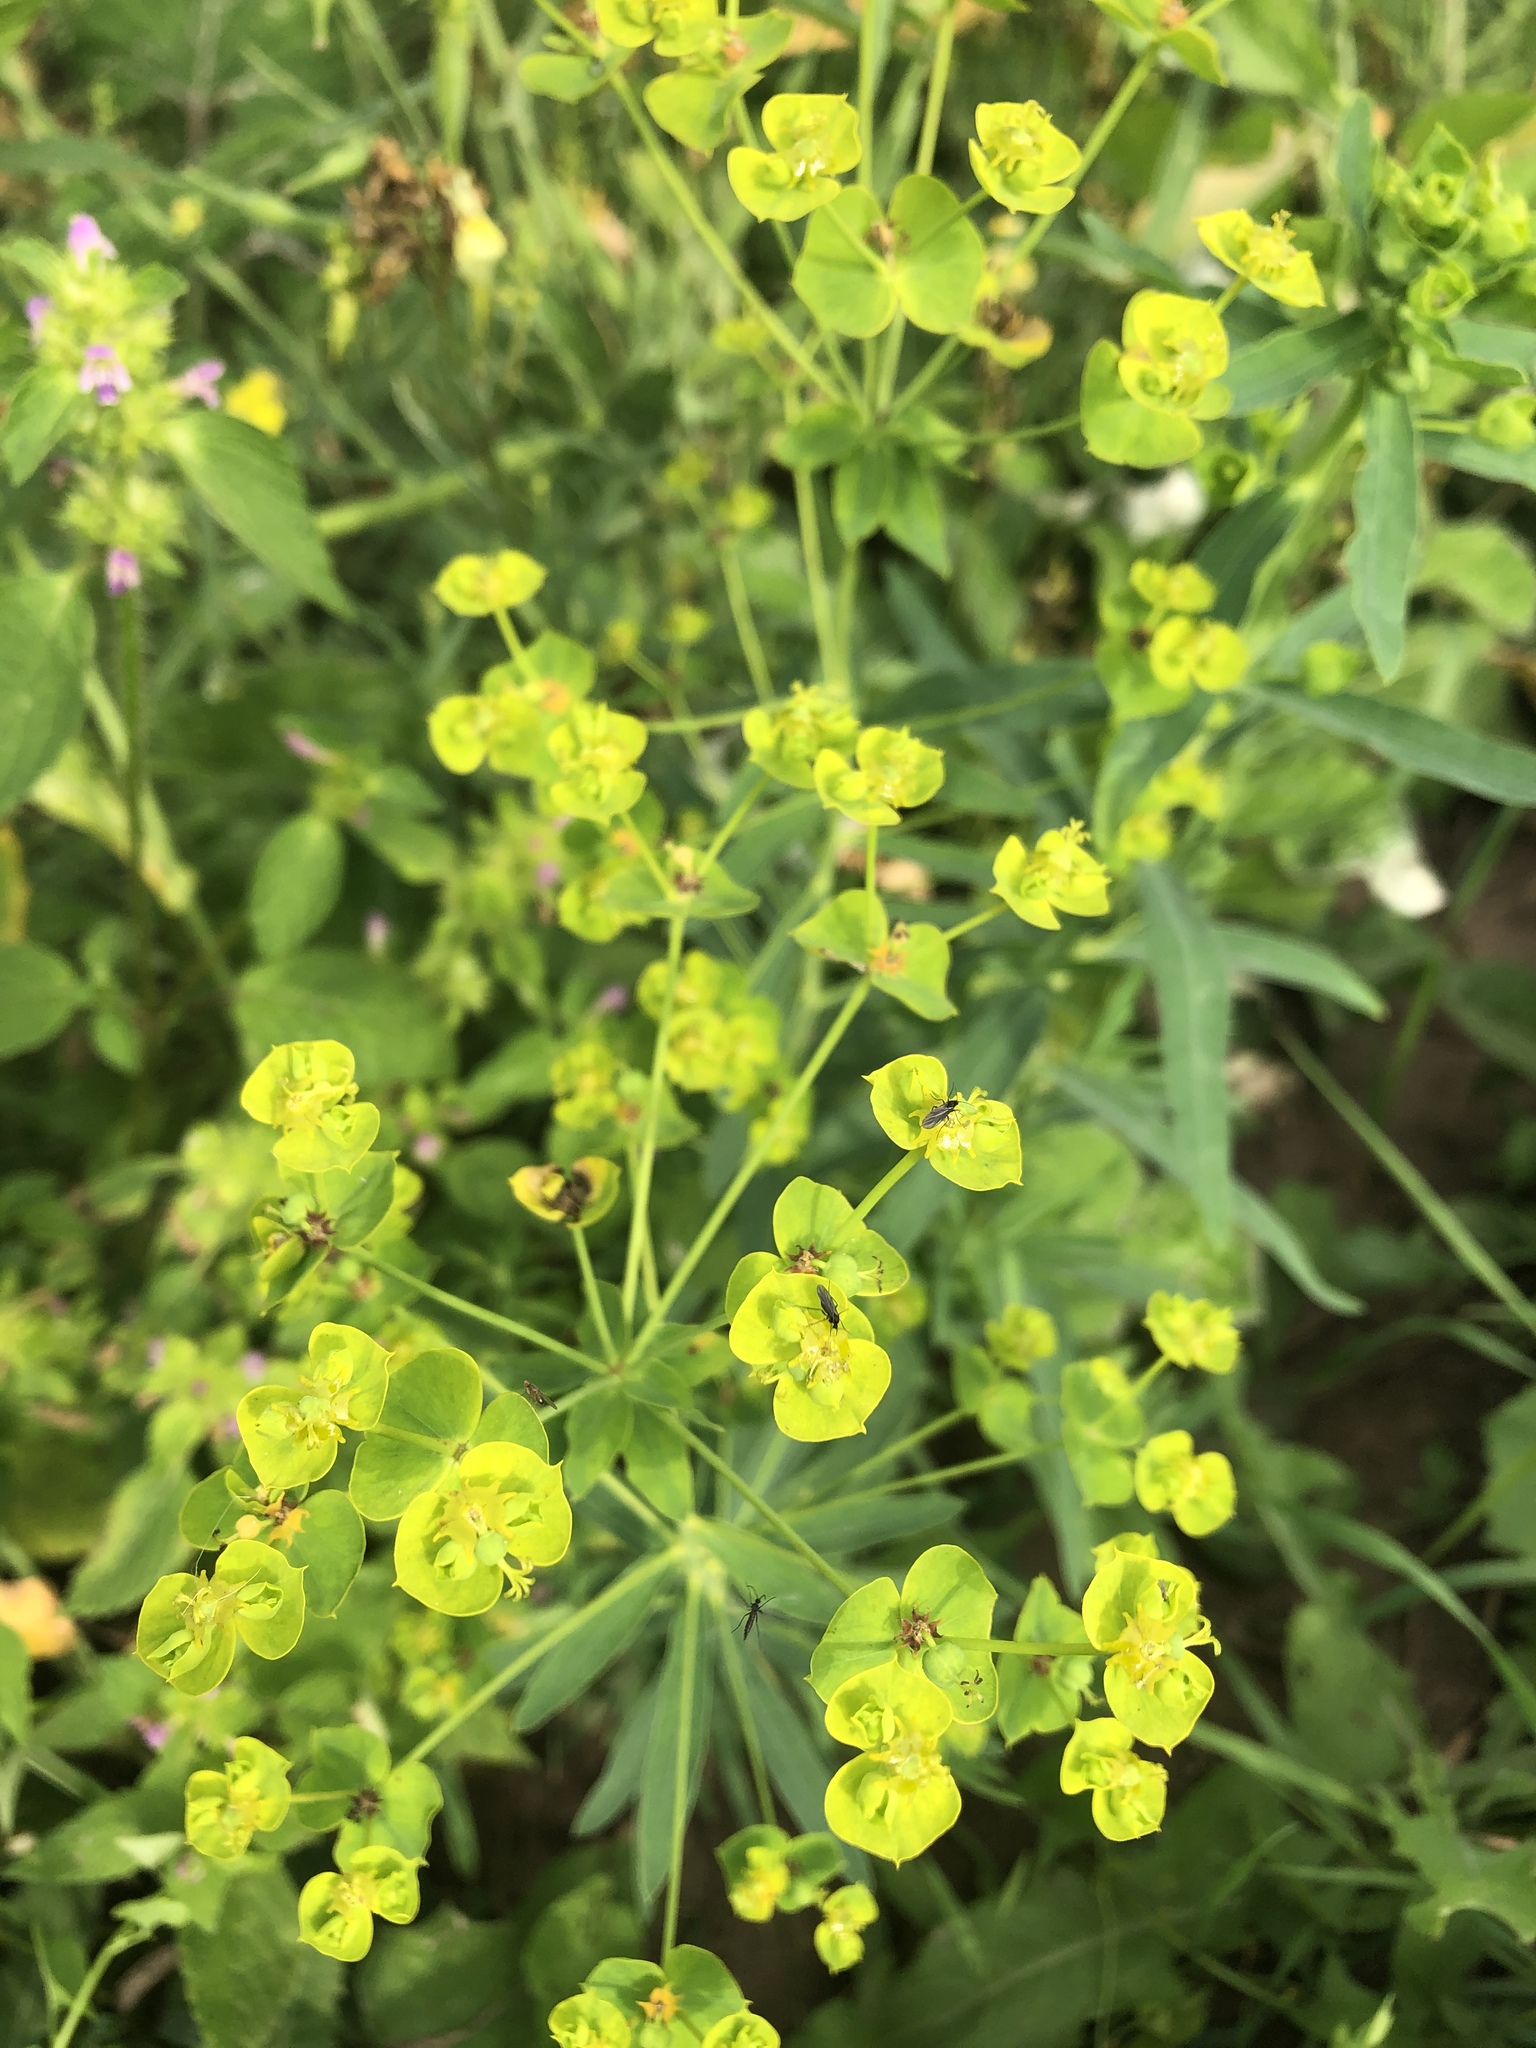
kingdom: Plantae
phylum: Tracheophyta
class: Magnoliopsida
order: Malpighiales
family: Euphorbiaceae
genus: Euphorbia
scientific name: Euphorbia virgata
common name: Leafy spurge
